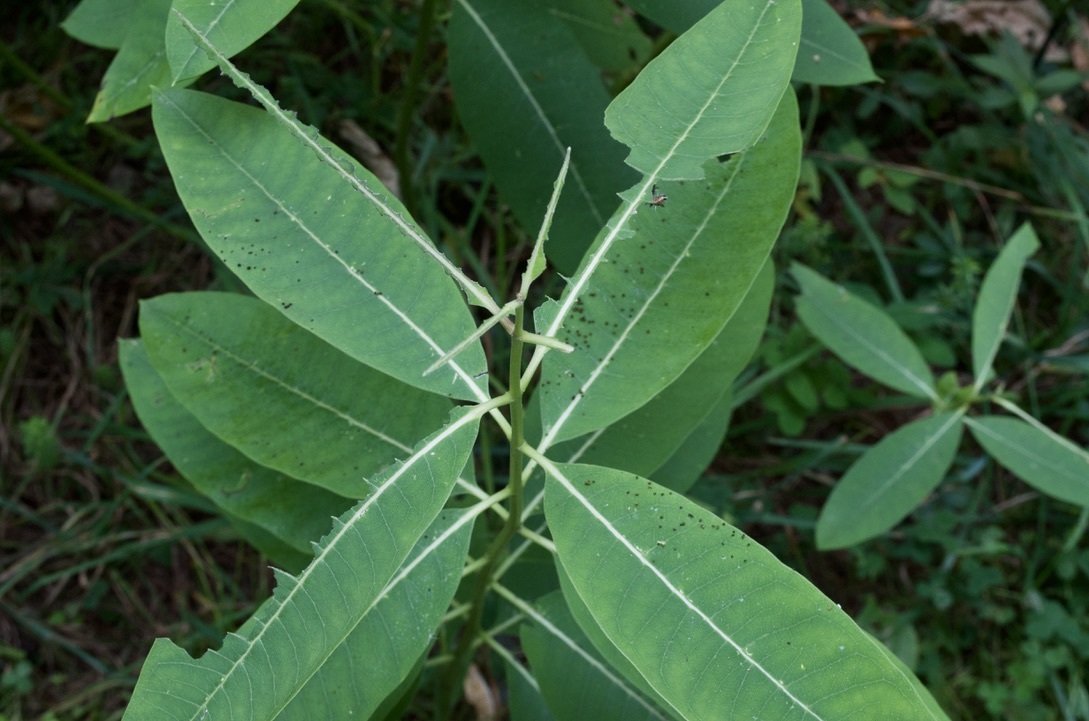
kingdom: Animalia
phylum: Arthropoda
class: Insecta
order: Lepidoptera
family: Erebidae
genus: Euchaetes
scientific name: Euchaetes egle
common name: Milkweed tussock moth
